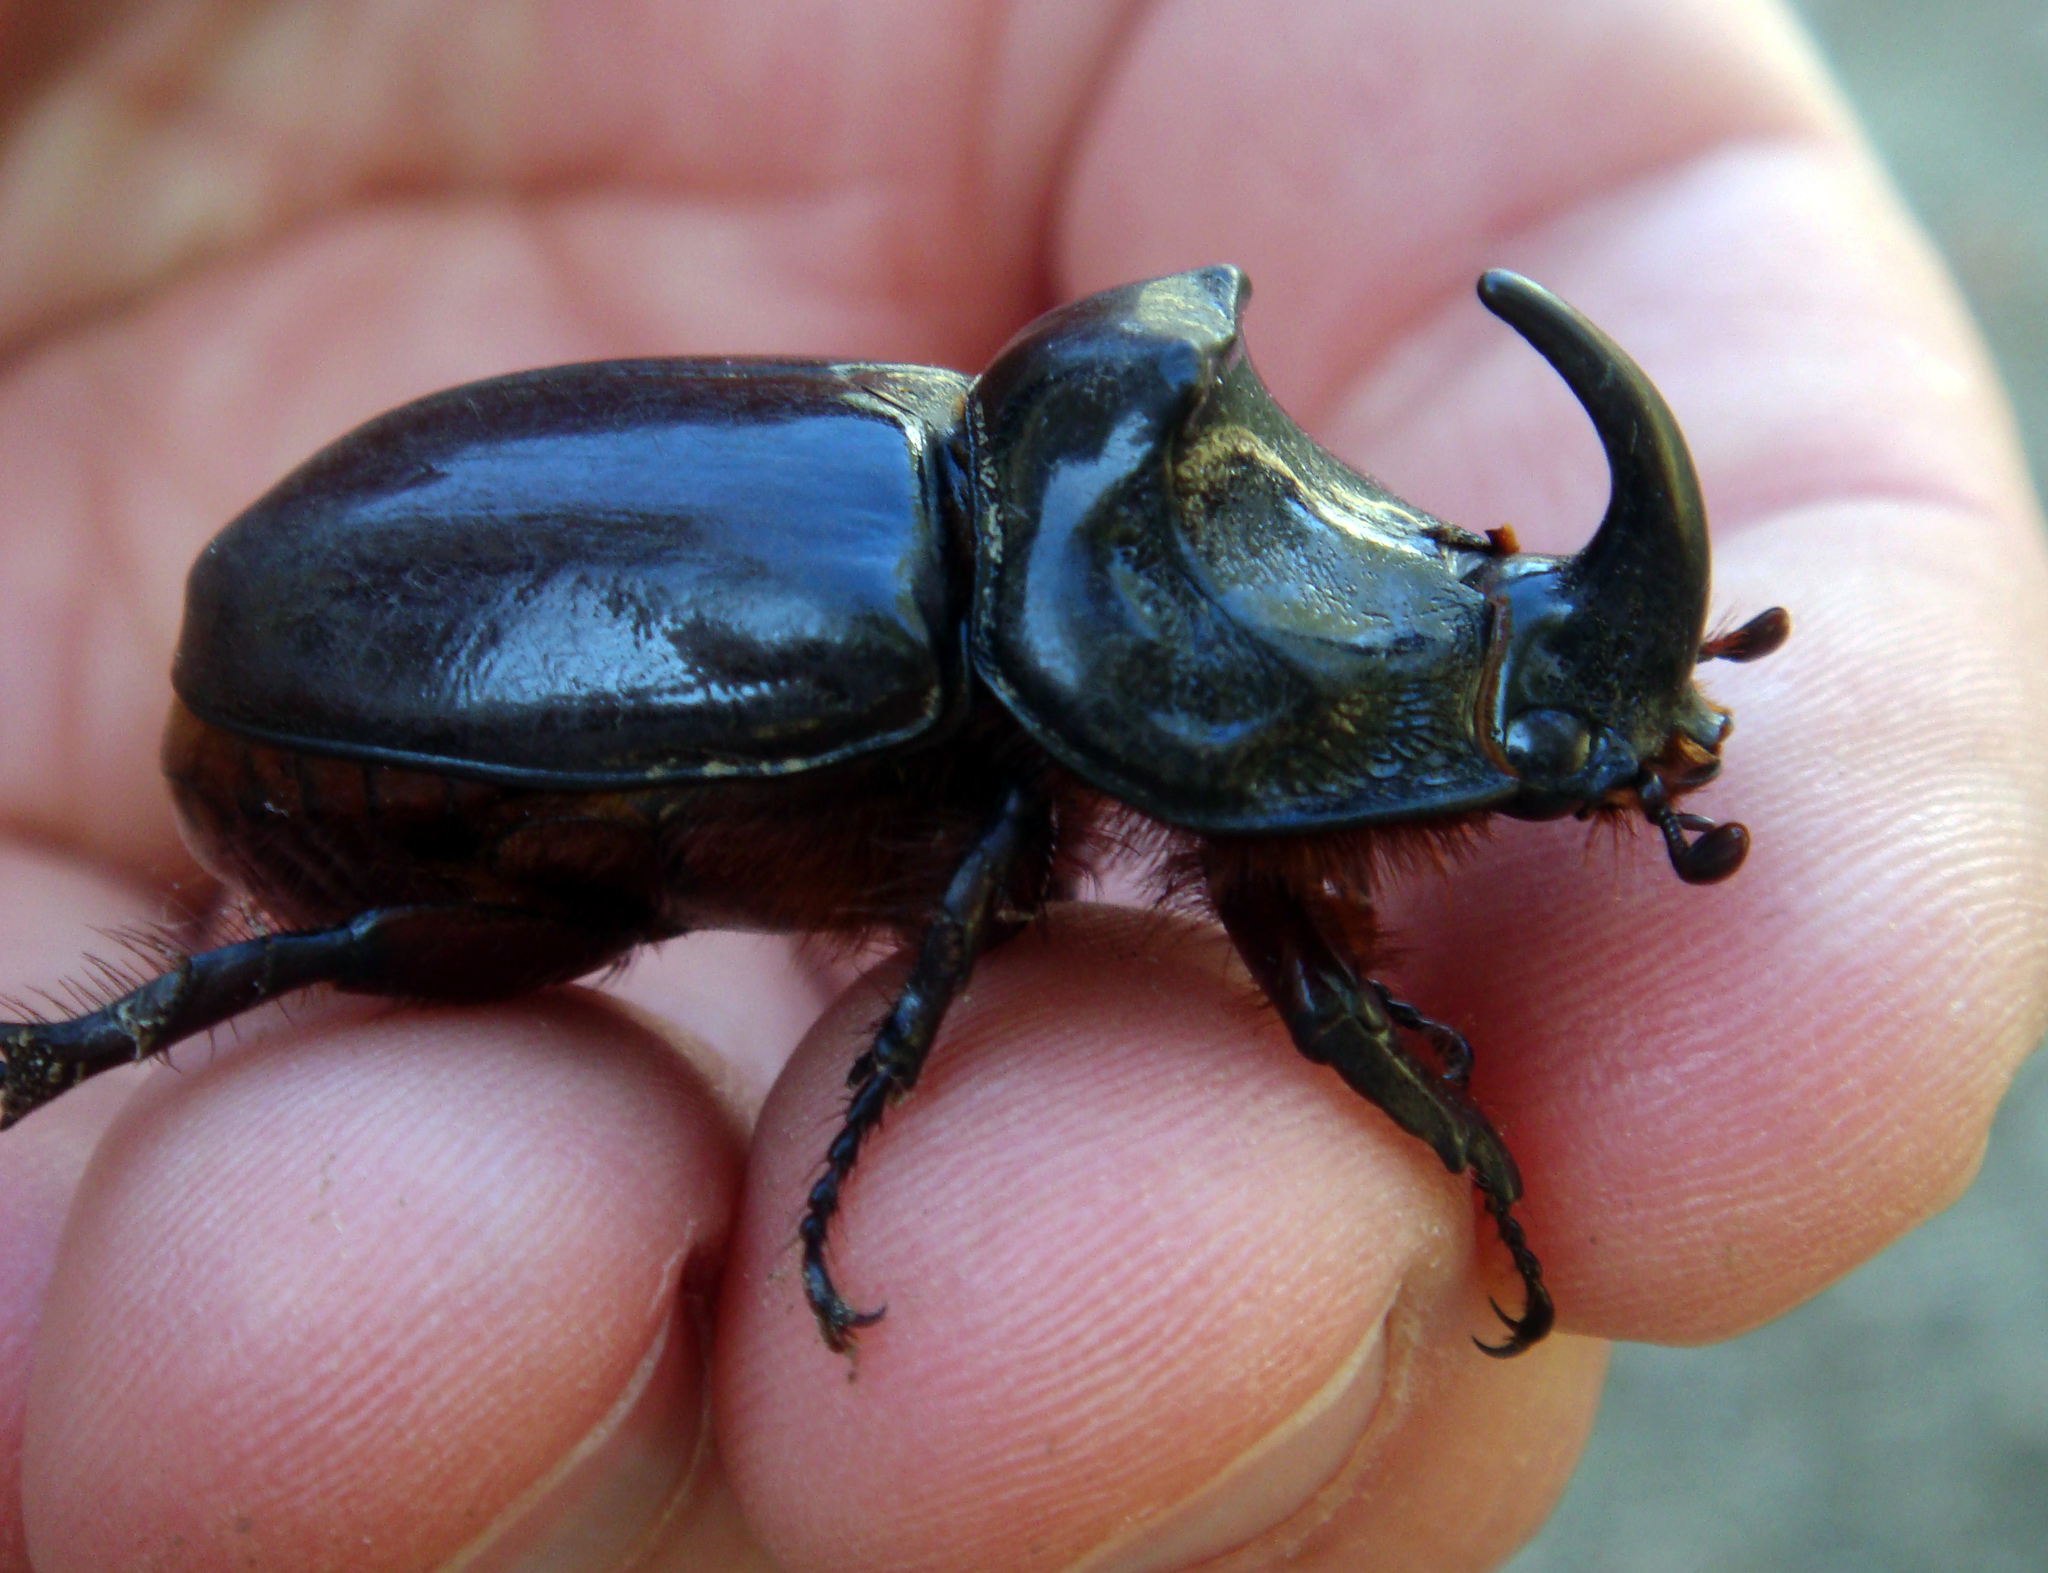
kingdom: Animalia
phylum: Arthropoda
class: Insecta
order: Coleoptera
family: Scarabaeidae
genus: Oryctes
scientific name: Oryctes nasicornis
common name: European rhinoceros beetle
